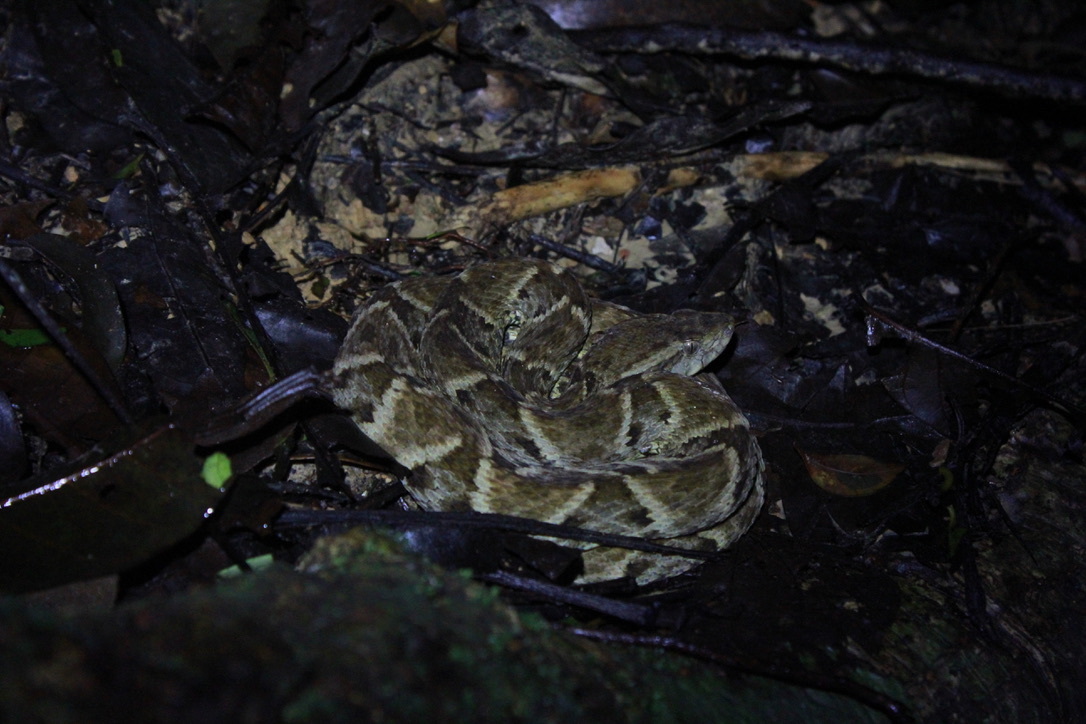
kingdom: Animalia
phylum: Chordata
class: Squamata
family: Viperidae
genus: Bothrops
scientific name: Bothrops atrox
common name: Common lancehead
